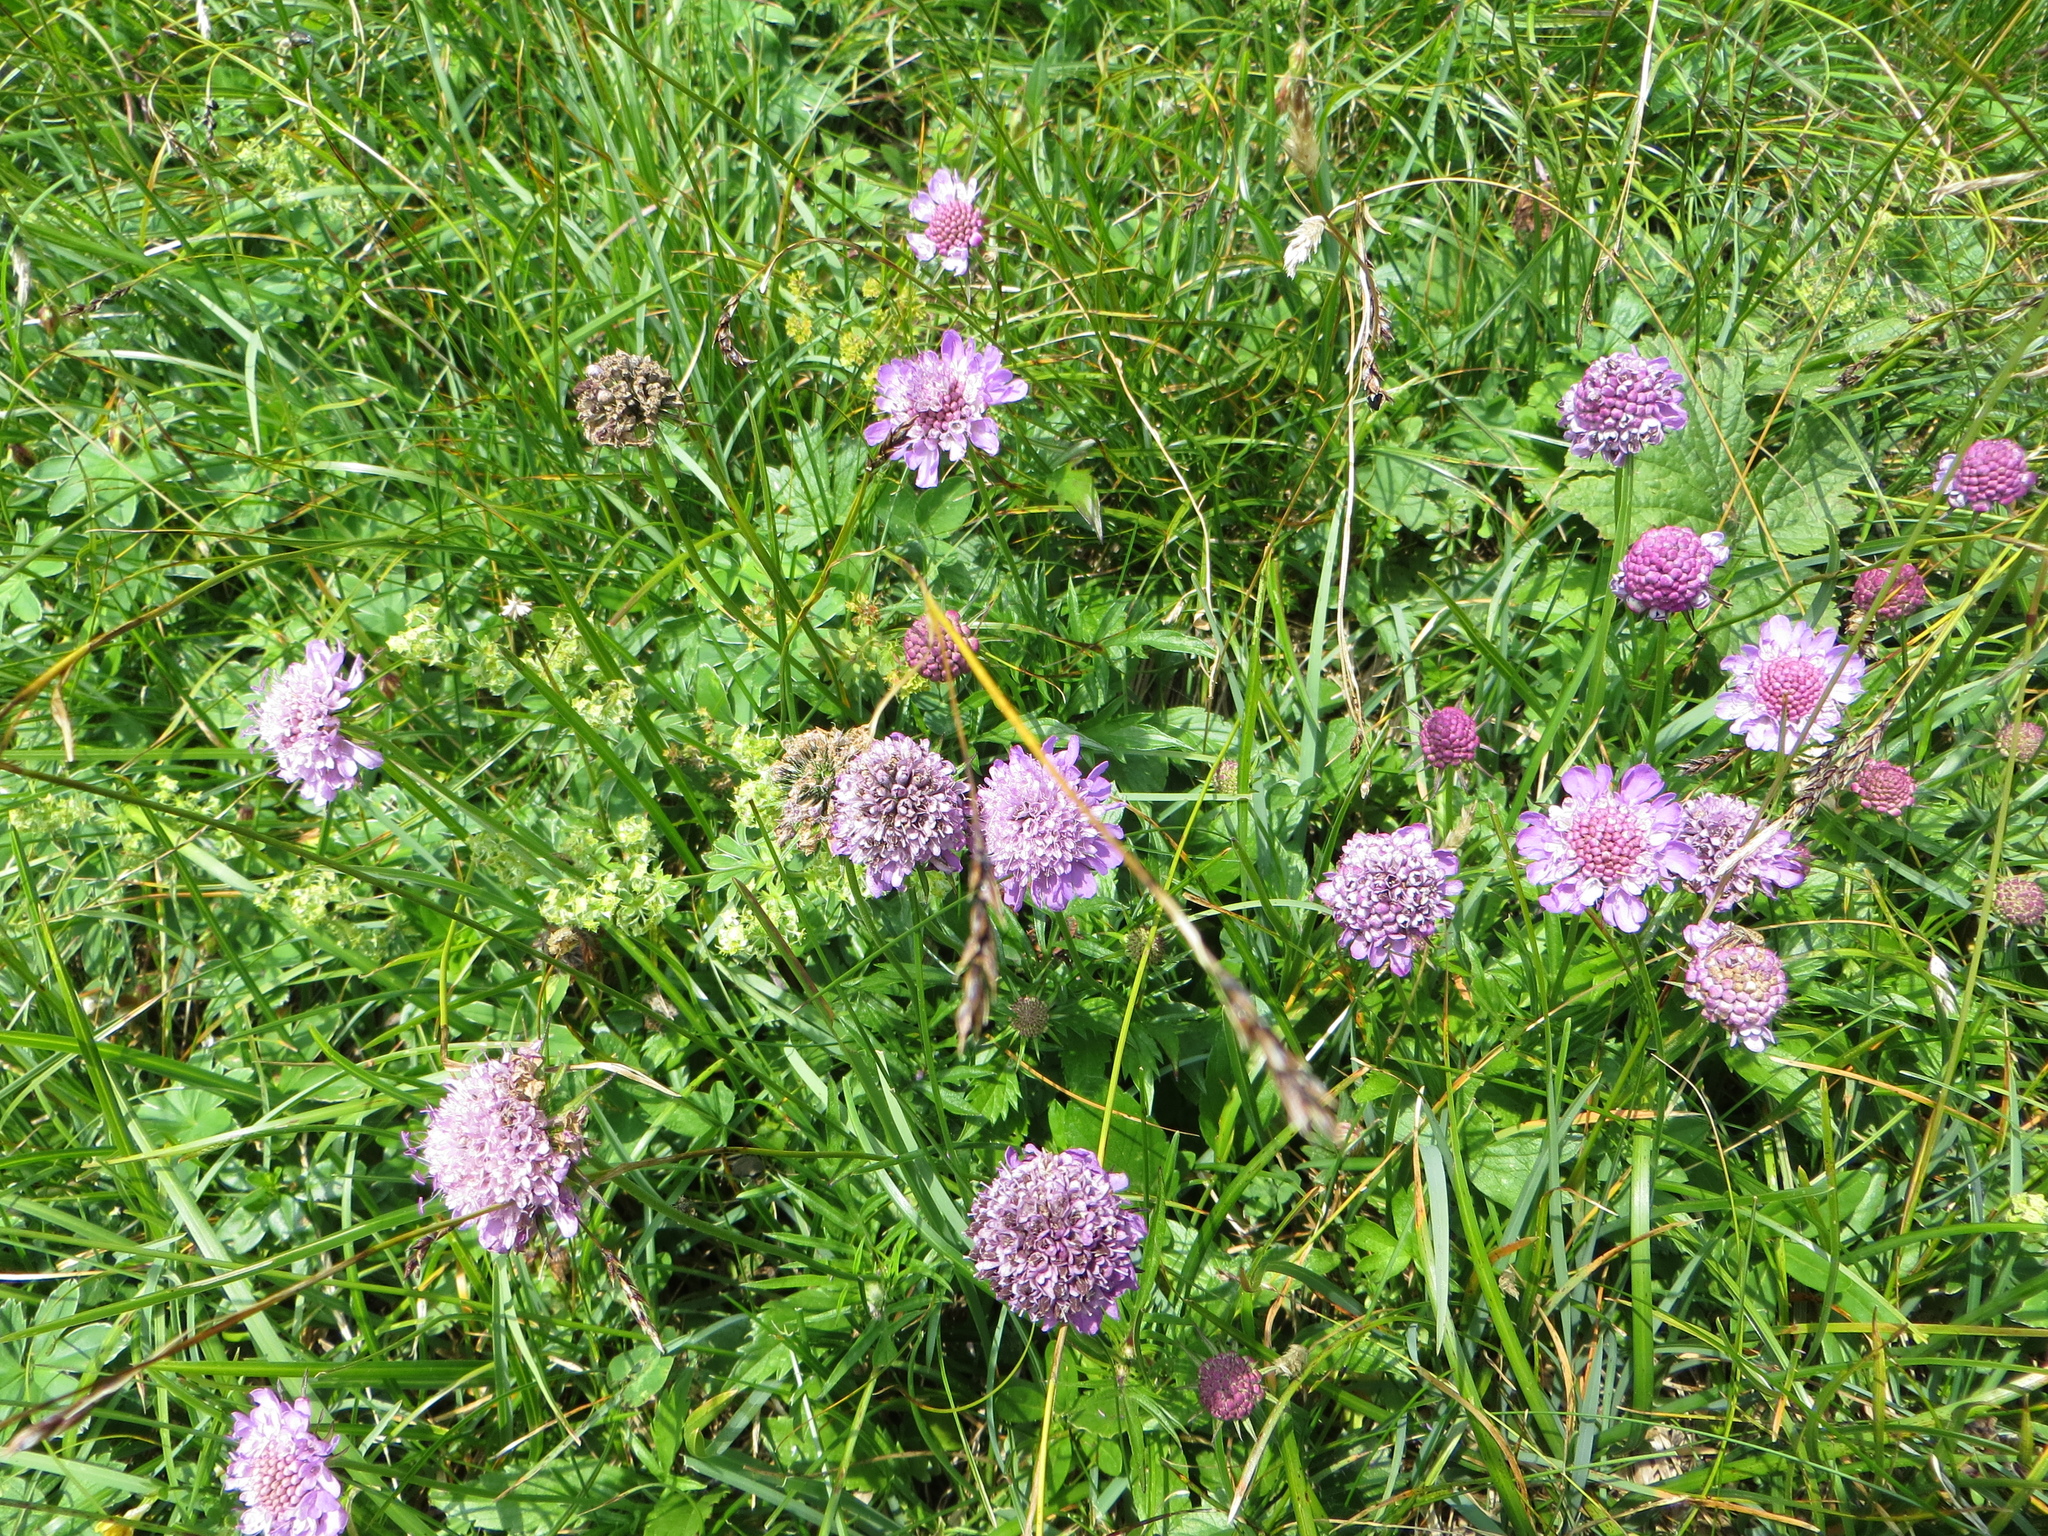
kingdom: Plantae
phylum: Tracheophyta
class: Magnoliopsida
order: Dipsacales
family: Caprifoliaceae
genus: Scabiosa
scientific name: Scabiosa lucida
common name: Shining scabious
